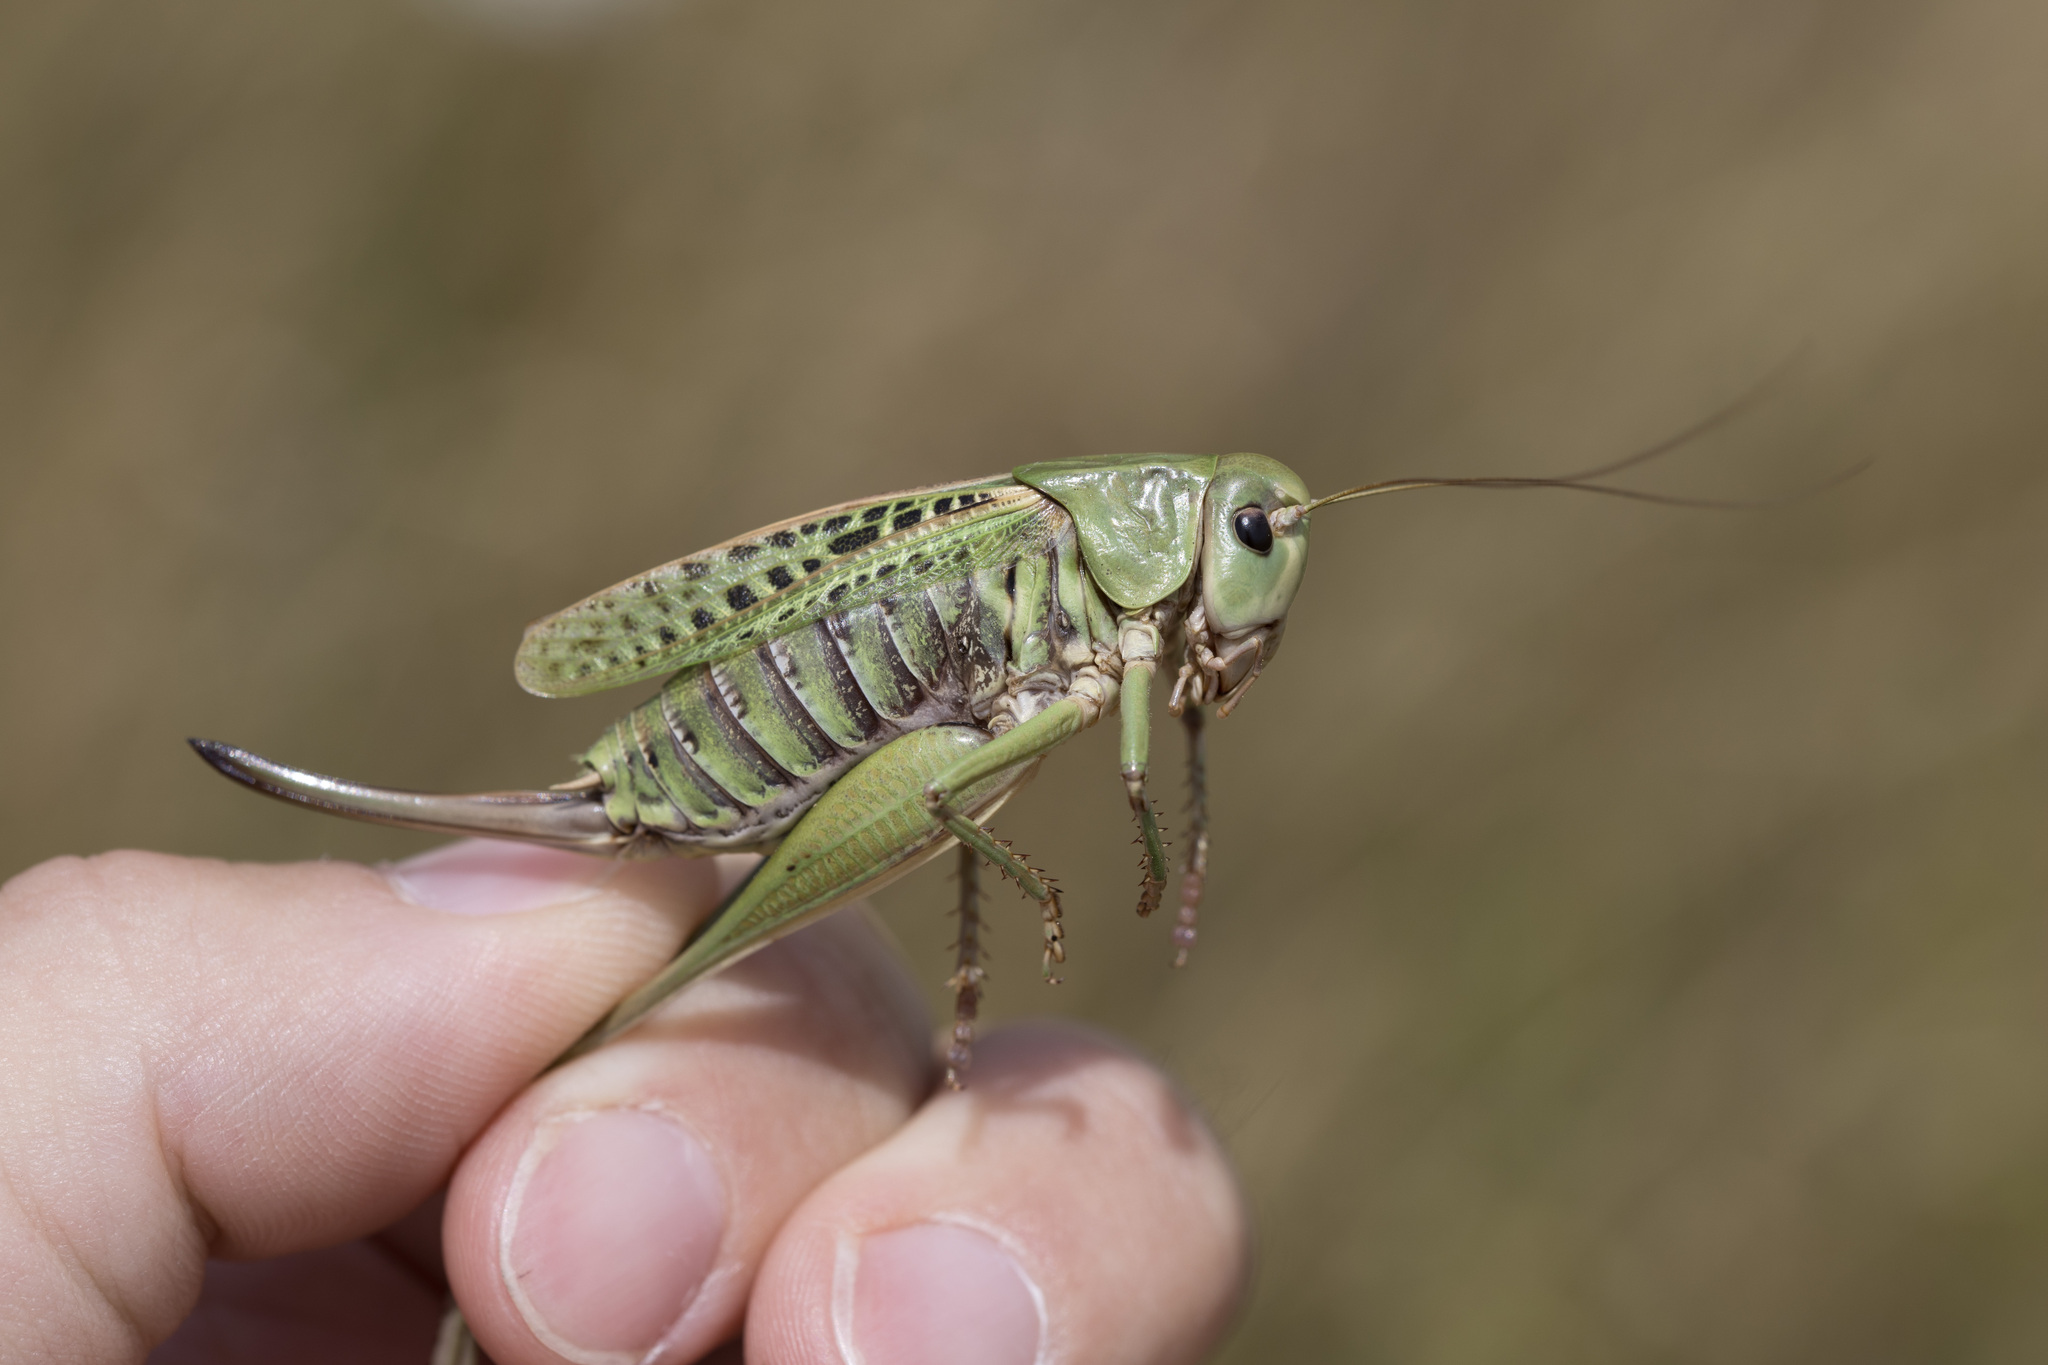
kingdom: Animalia
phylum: Arthropoda
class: Insecta
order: Orthoptera
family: Tettigoniidae
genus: Decticus
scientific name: Decticus verrucivorus
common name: Wart-biter
